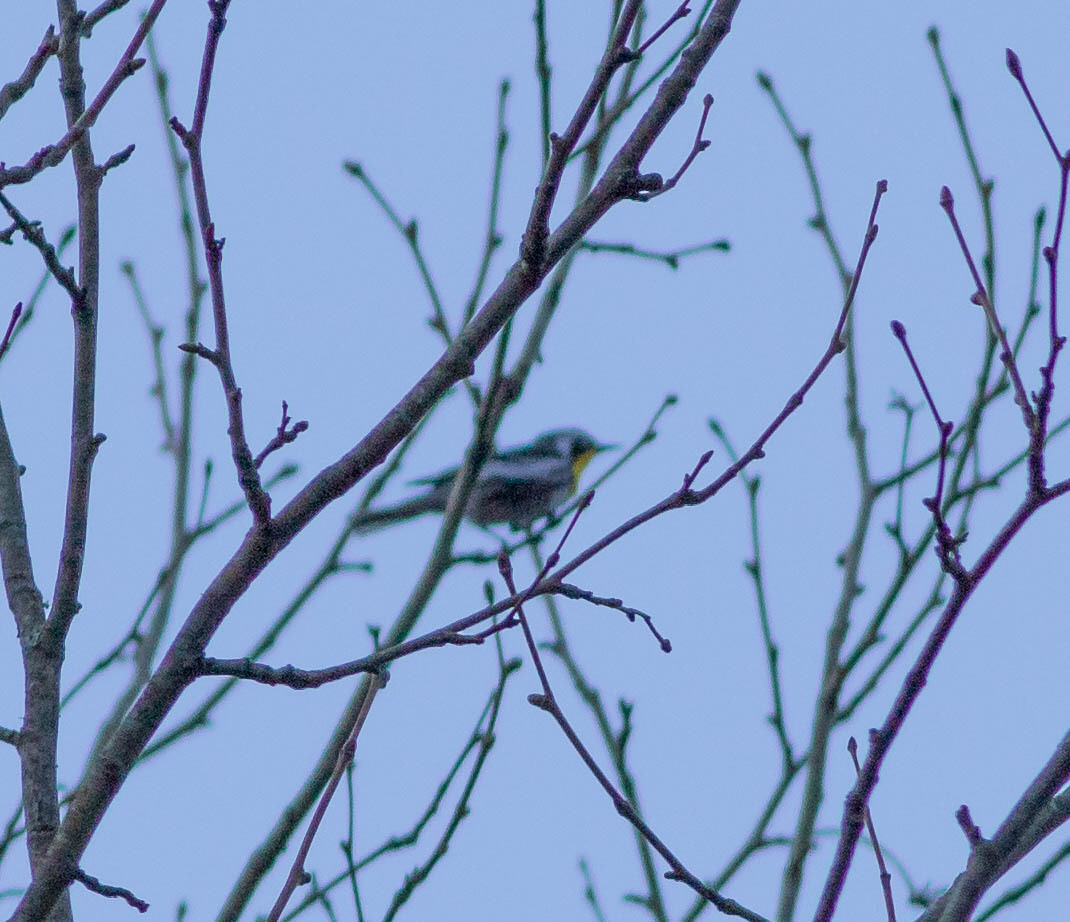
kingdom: Animalia
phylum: Chordata
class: Aves
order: Passeriformes
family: Parulidae
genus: Setophaga
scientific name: Setophaga dominica
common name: Yellow-throated warbler
